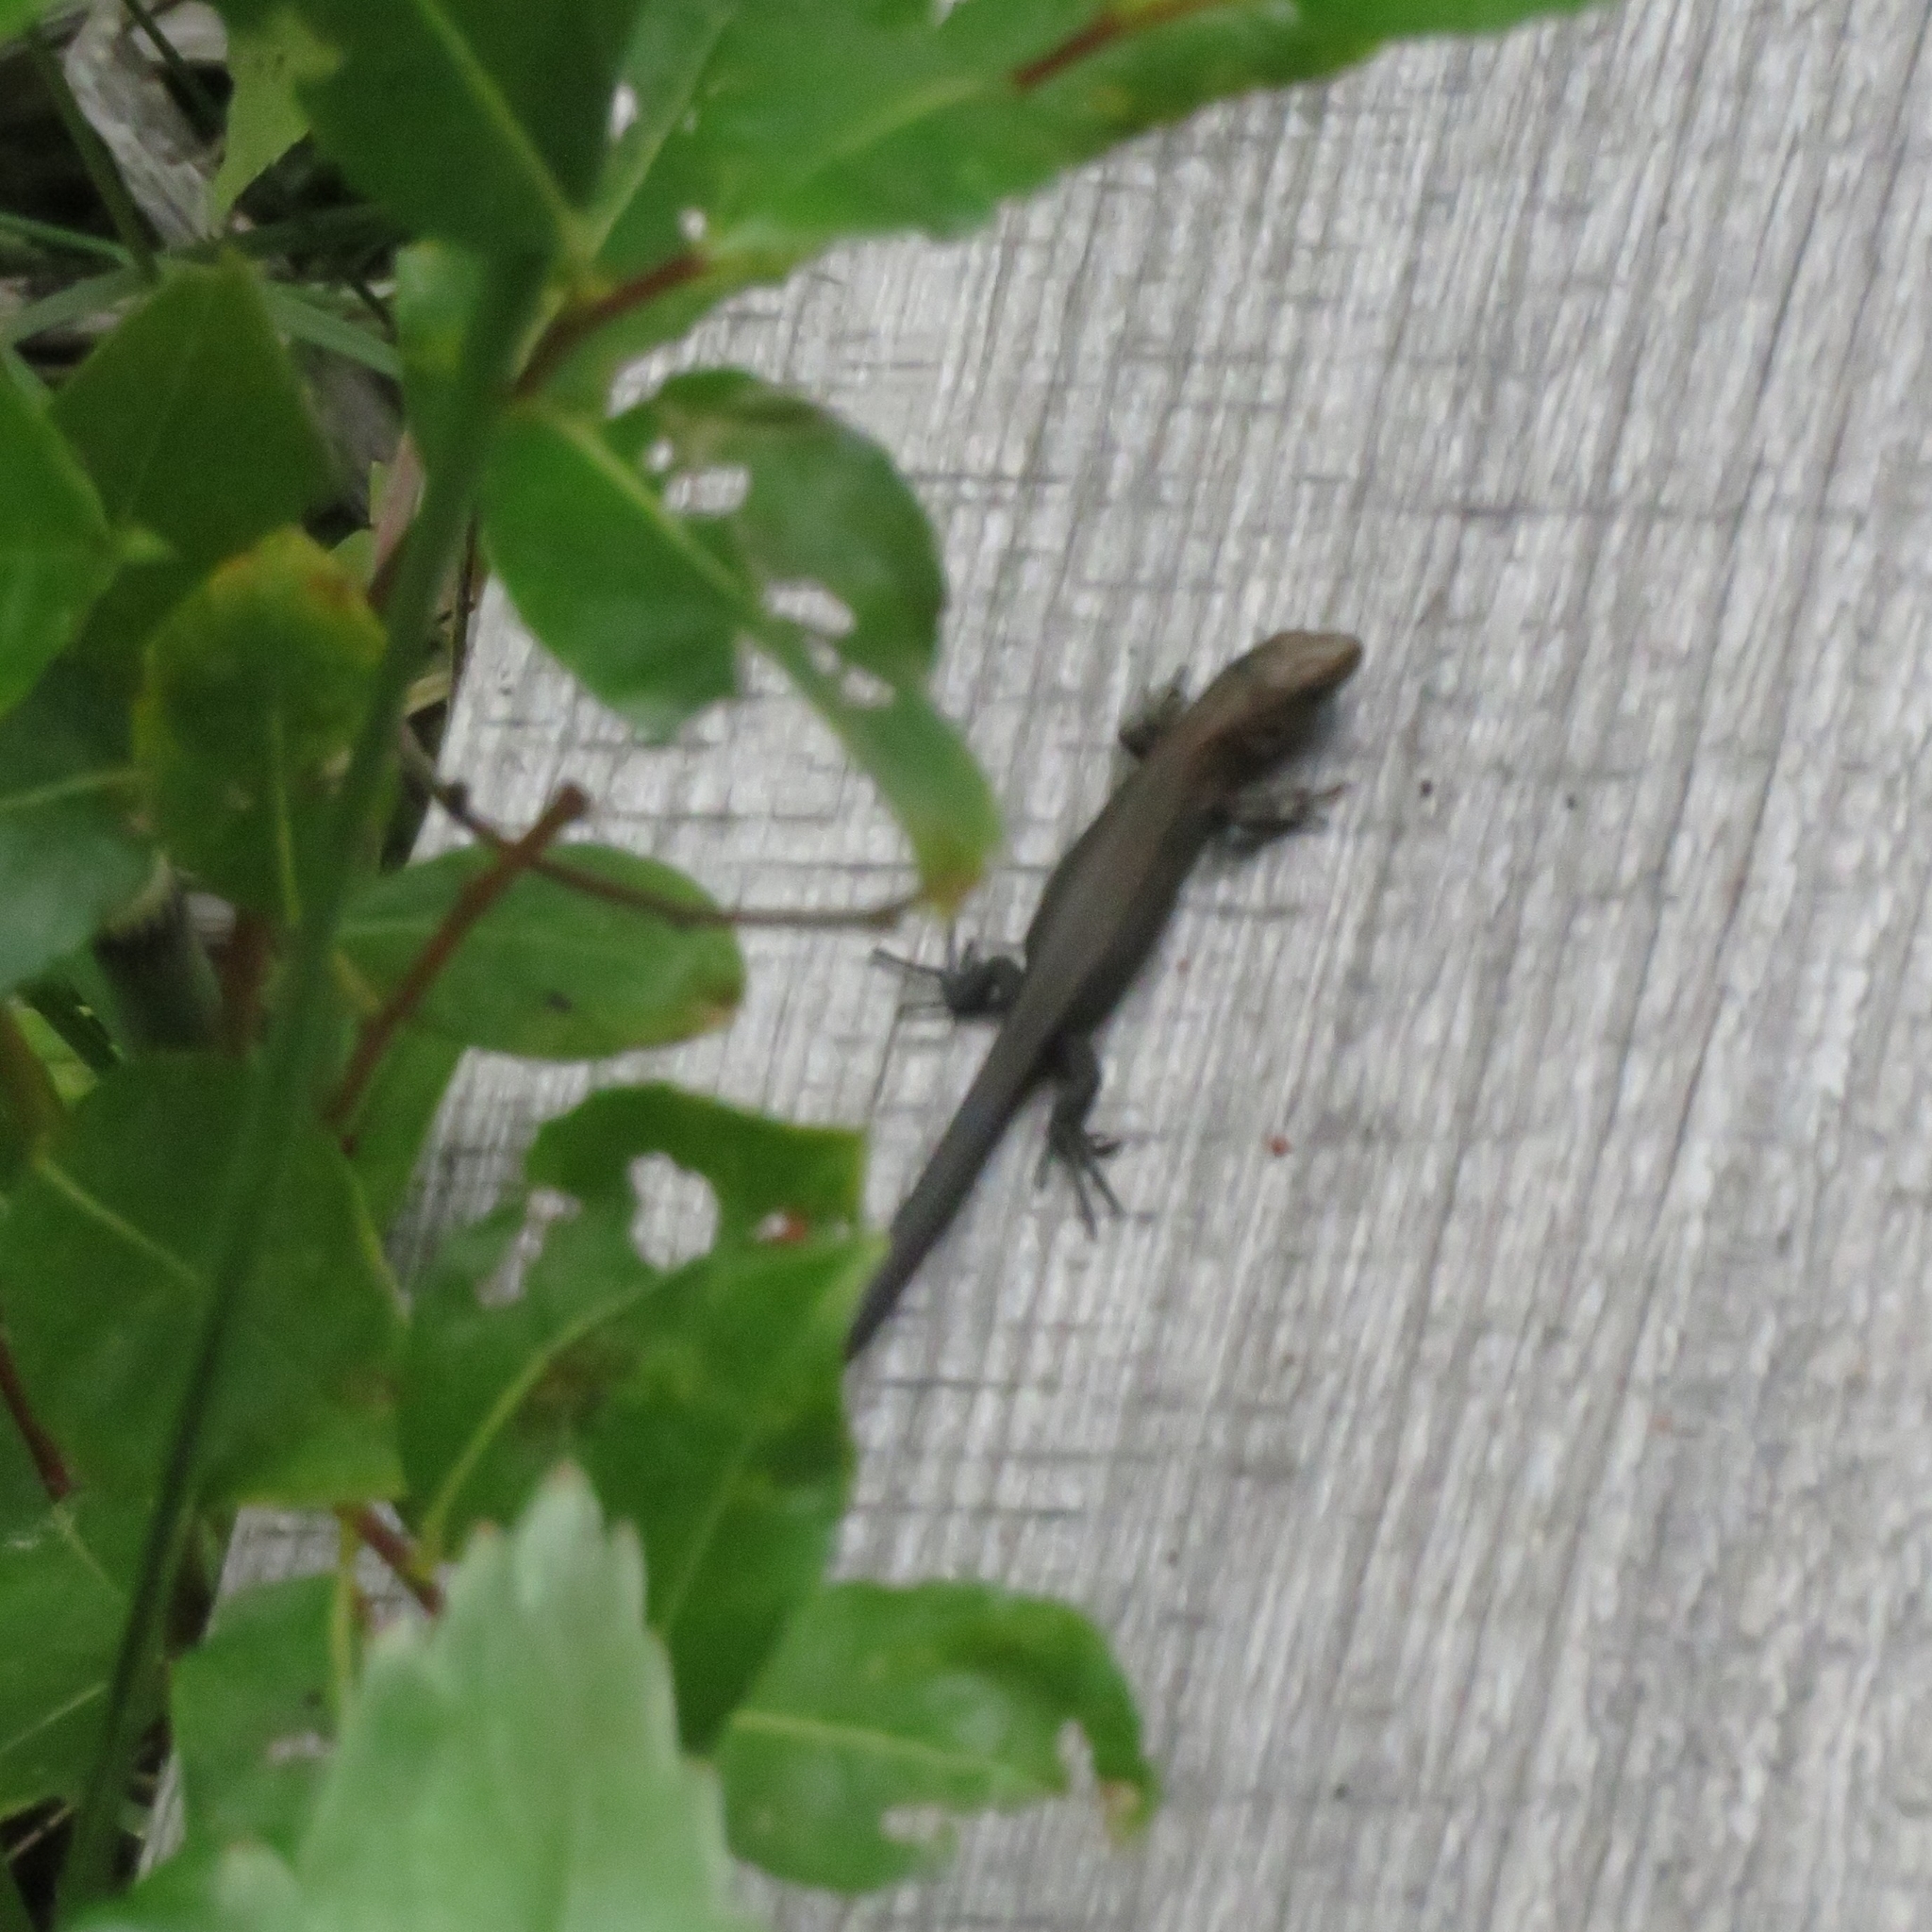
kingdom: Animalia
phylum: Chordata
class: Squamata
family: Lacertidae
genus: Zootoca
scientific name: Zootoca vivipara
